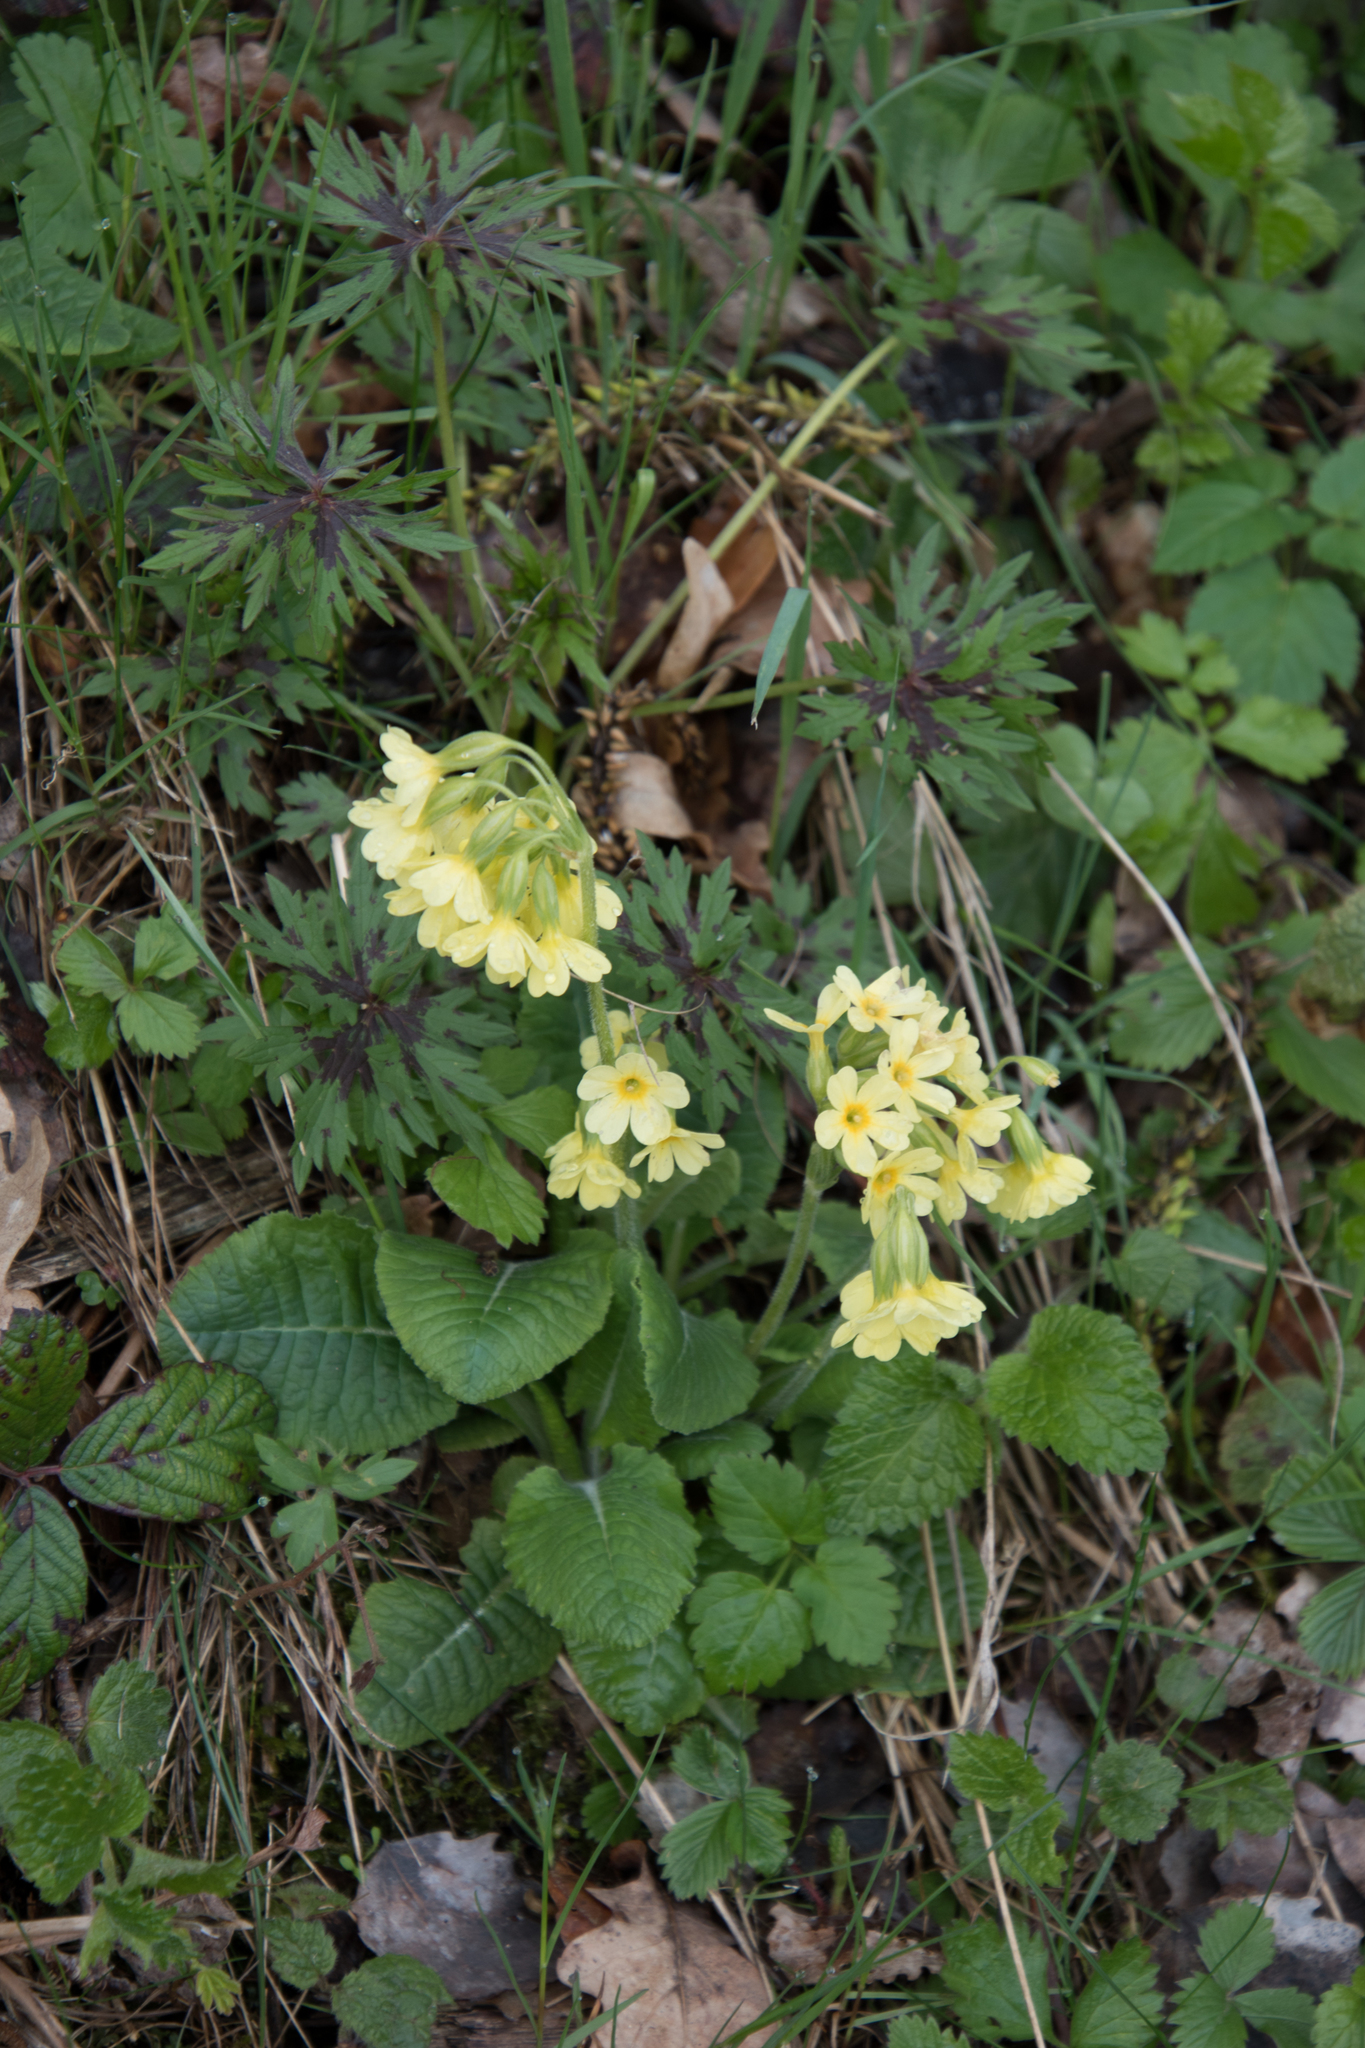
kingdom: Plantae
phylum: Tracheophyta
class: Magnoliopsida
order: Ericales
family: Primulaceae
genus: Primula
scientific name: Primula elatior
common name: Oxlip
